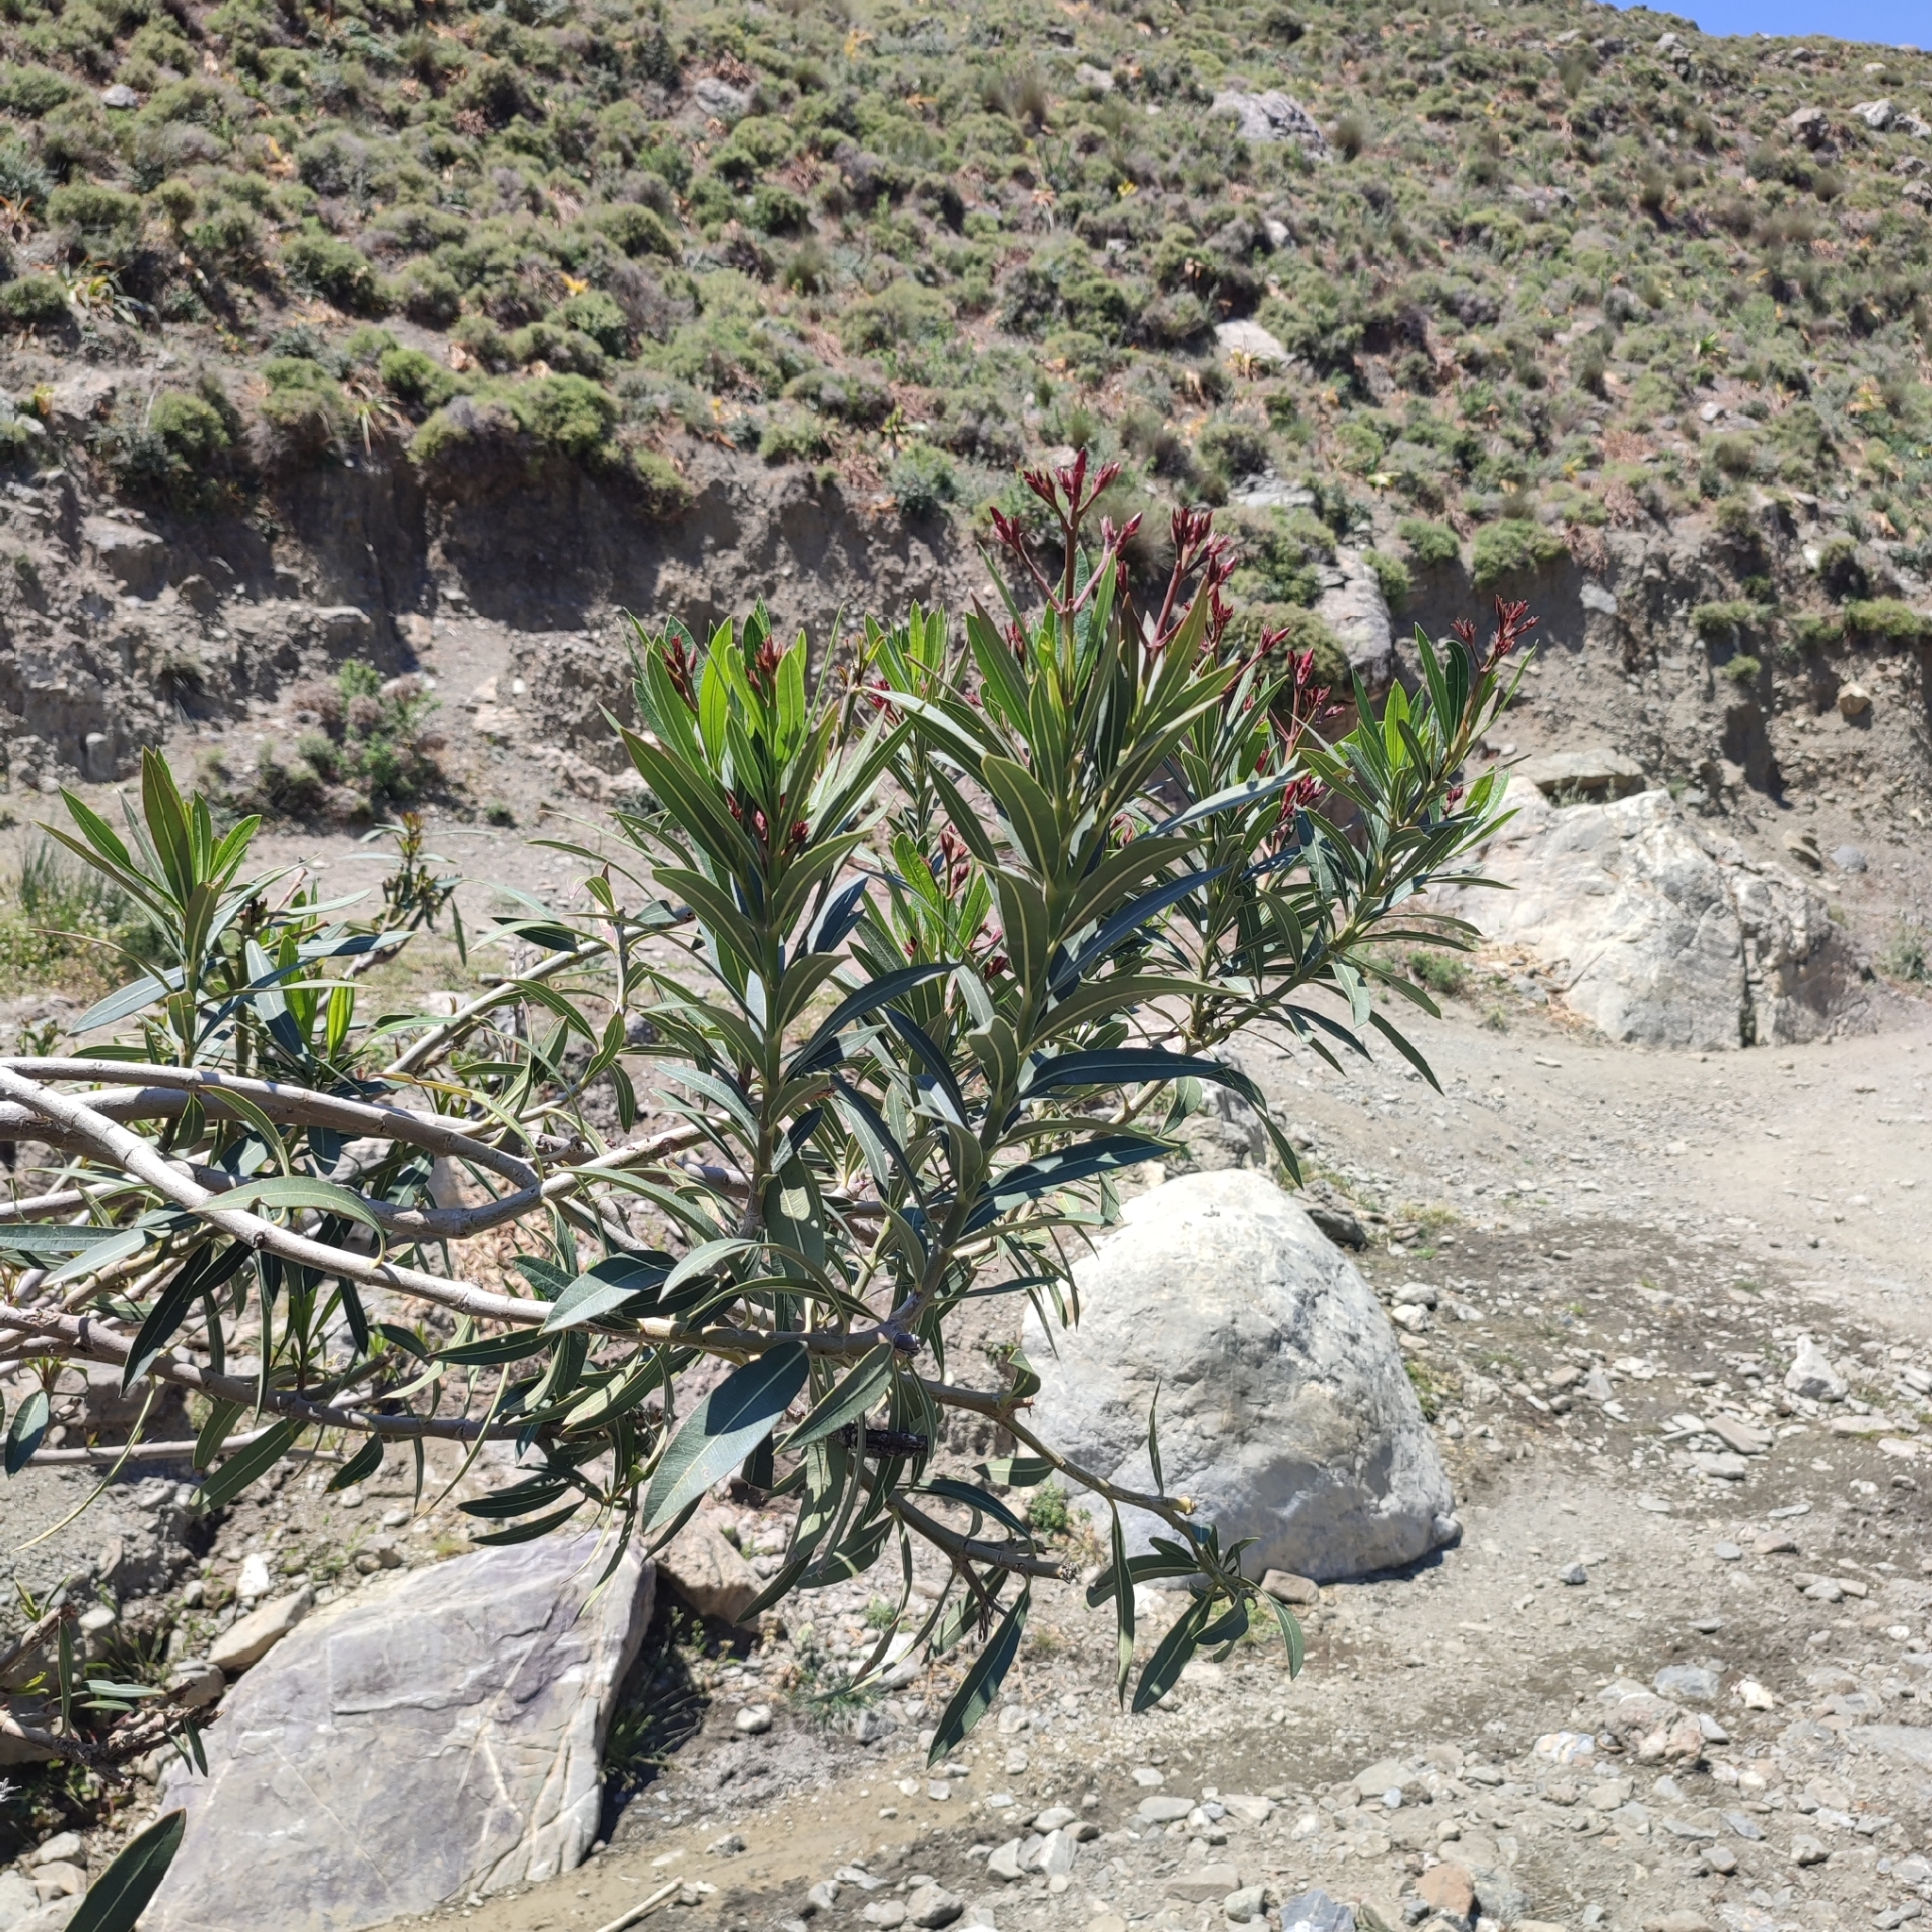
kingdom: Plantae
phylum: Tracheophyta
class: Magnoliopsida
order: Gentianales
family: Apocynaceae
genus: Nerium
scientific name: Nerium oleander
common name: Oleander
